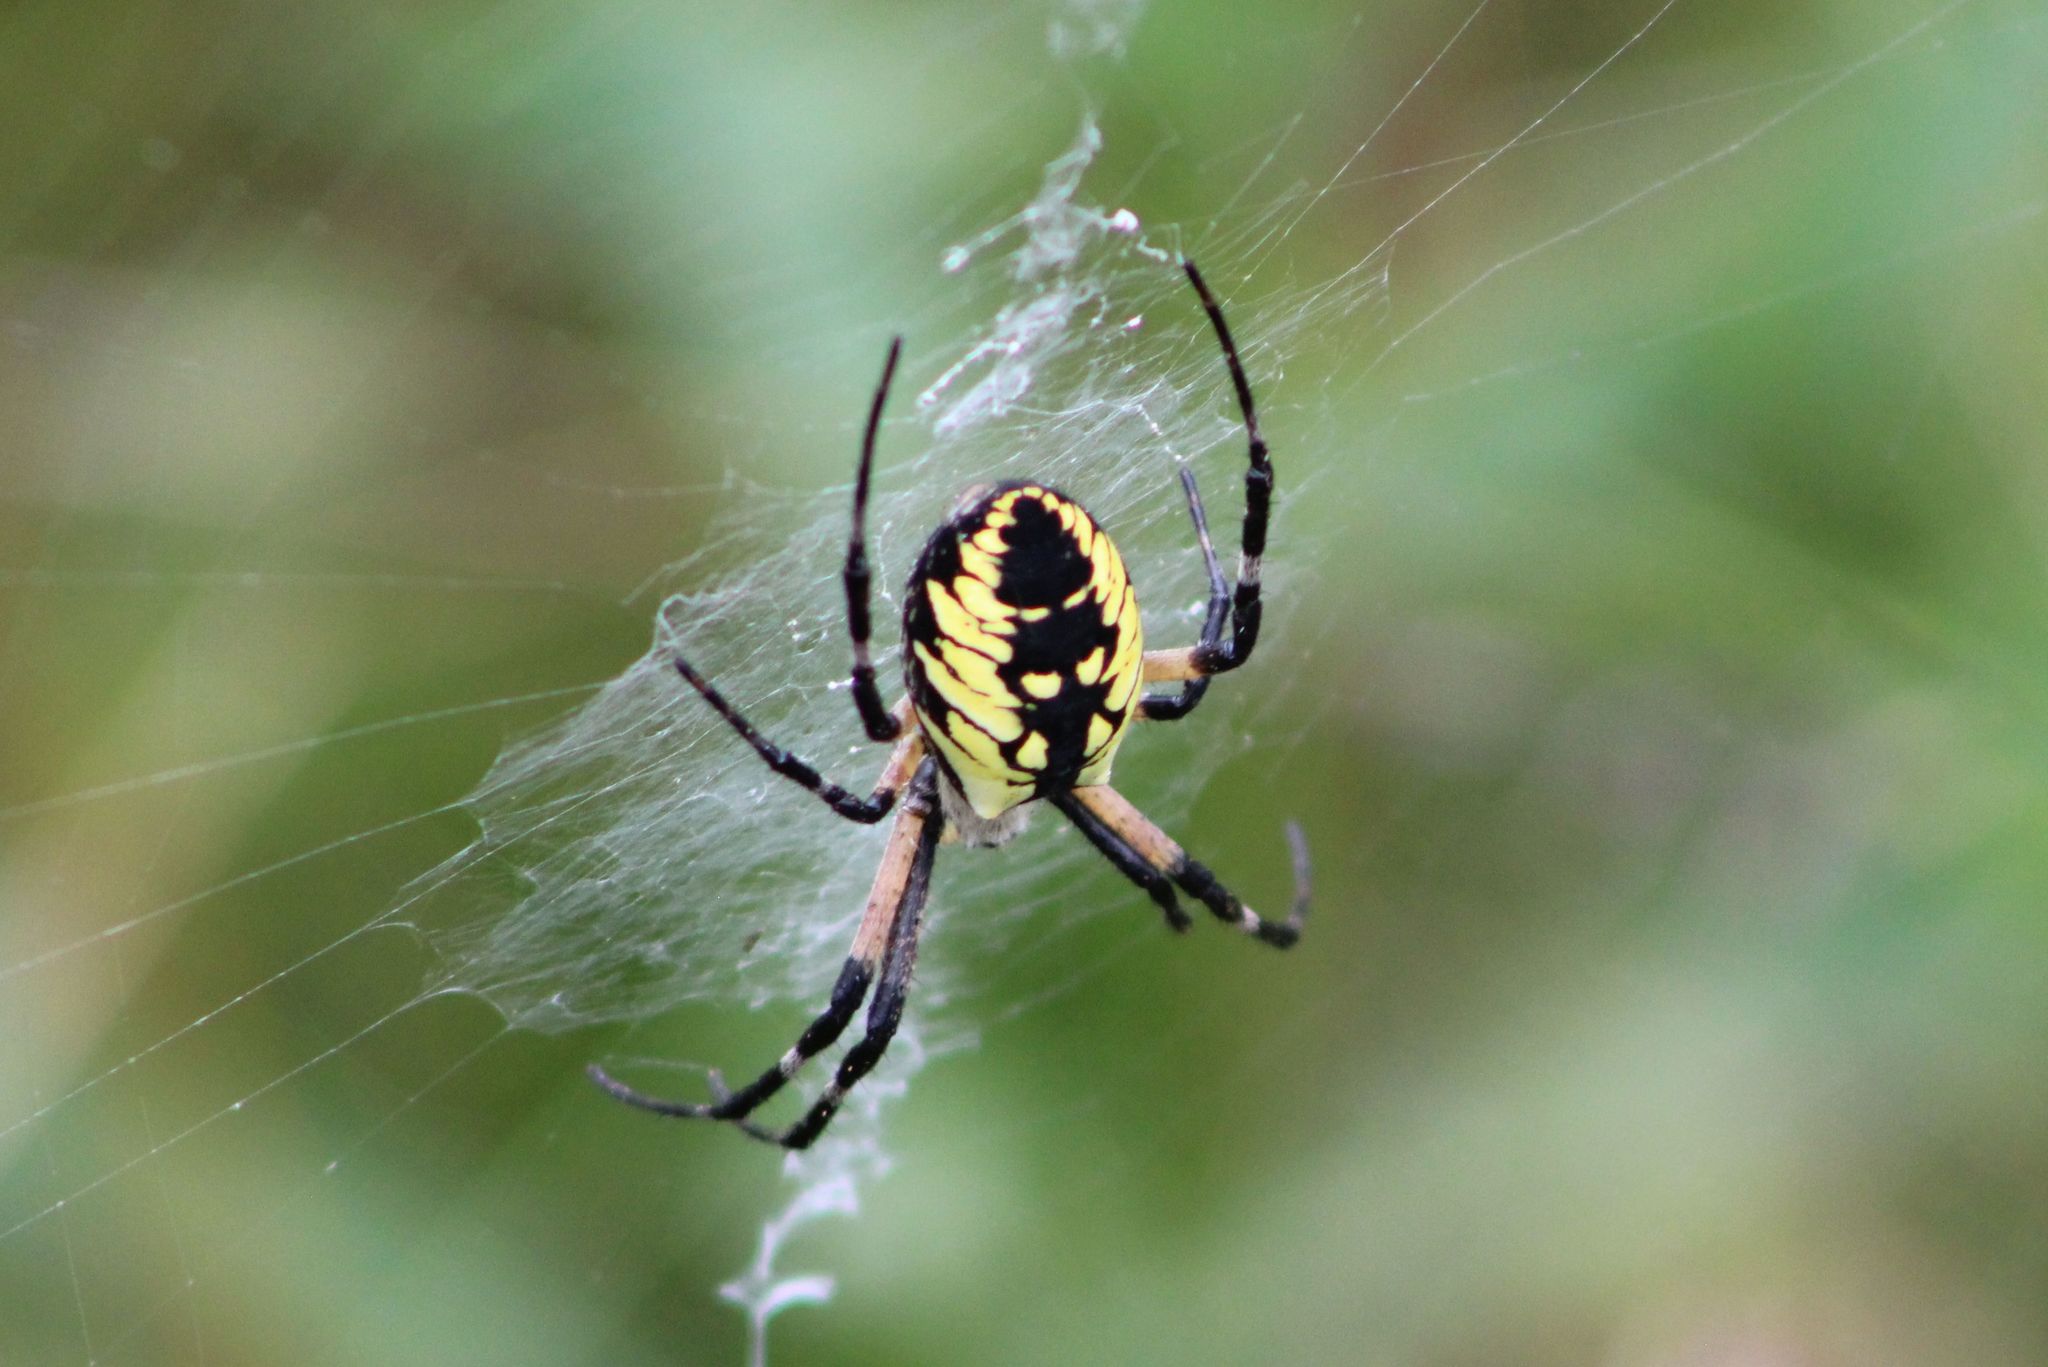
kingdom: Animalia
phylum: Arthropoda
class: Arachnida
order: Araneae
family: Araneidae
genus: Argiope
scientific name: Argiope aurantia
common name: Orb weavers
